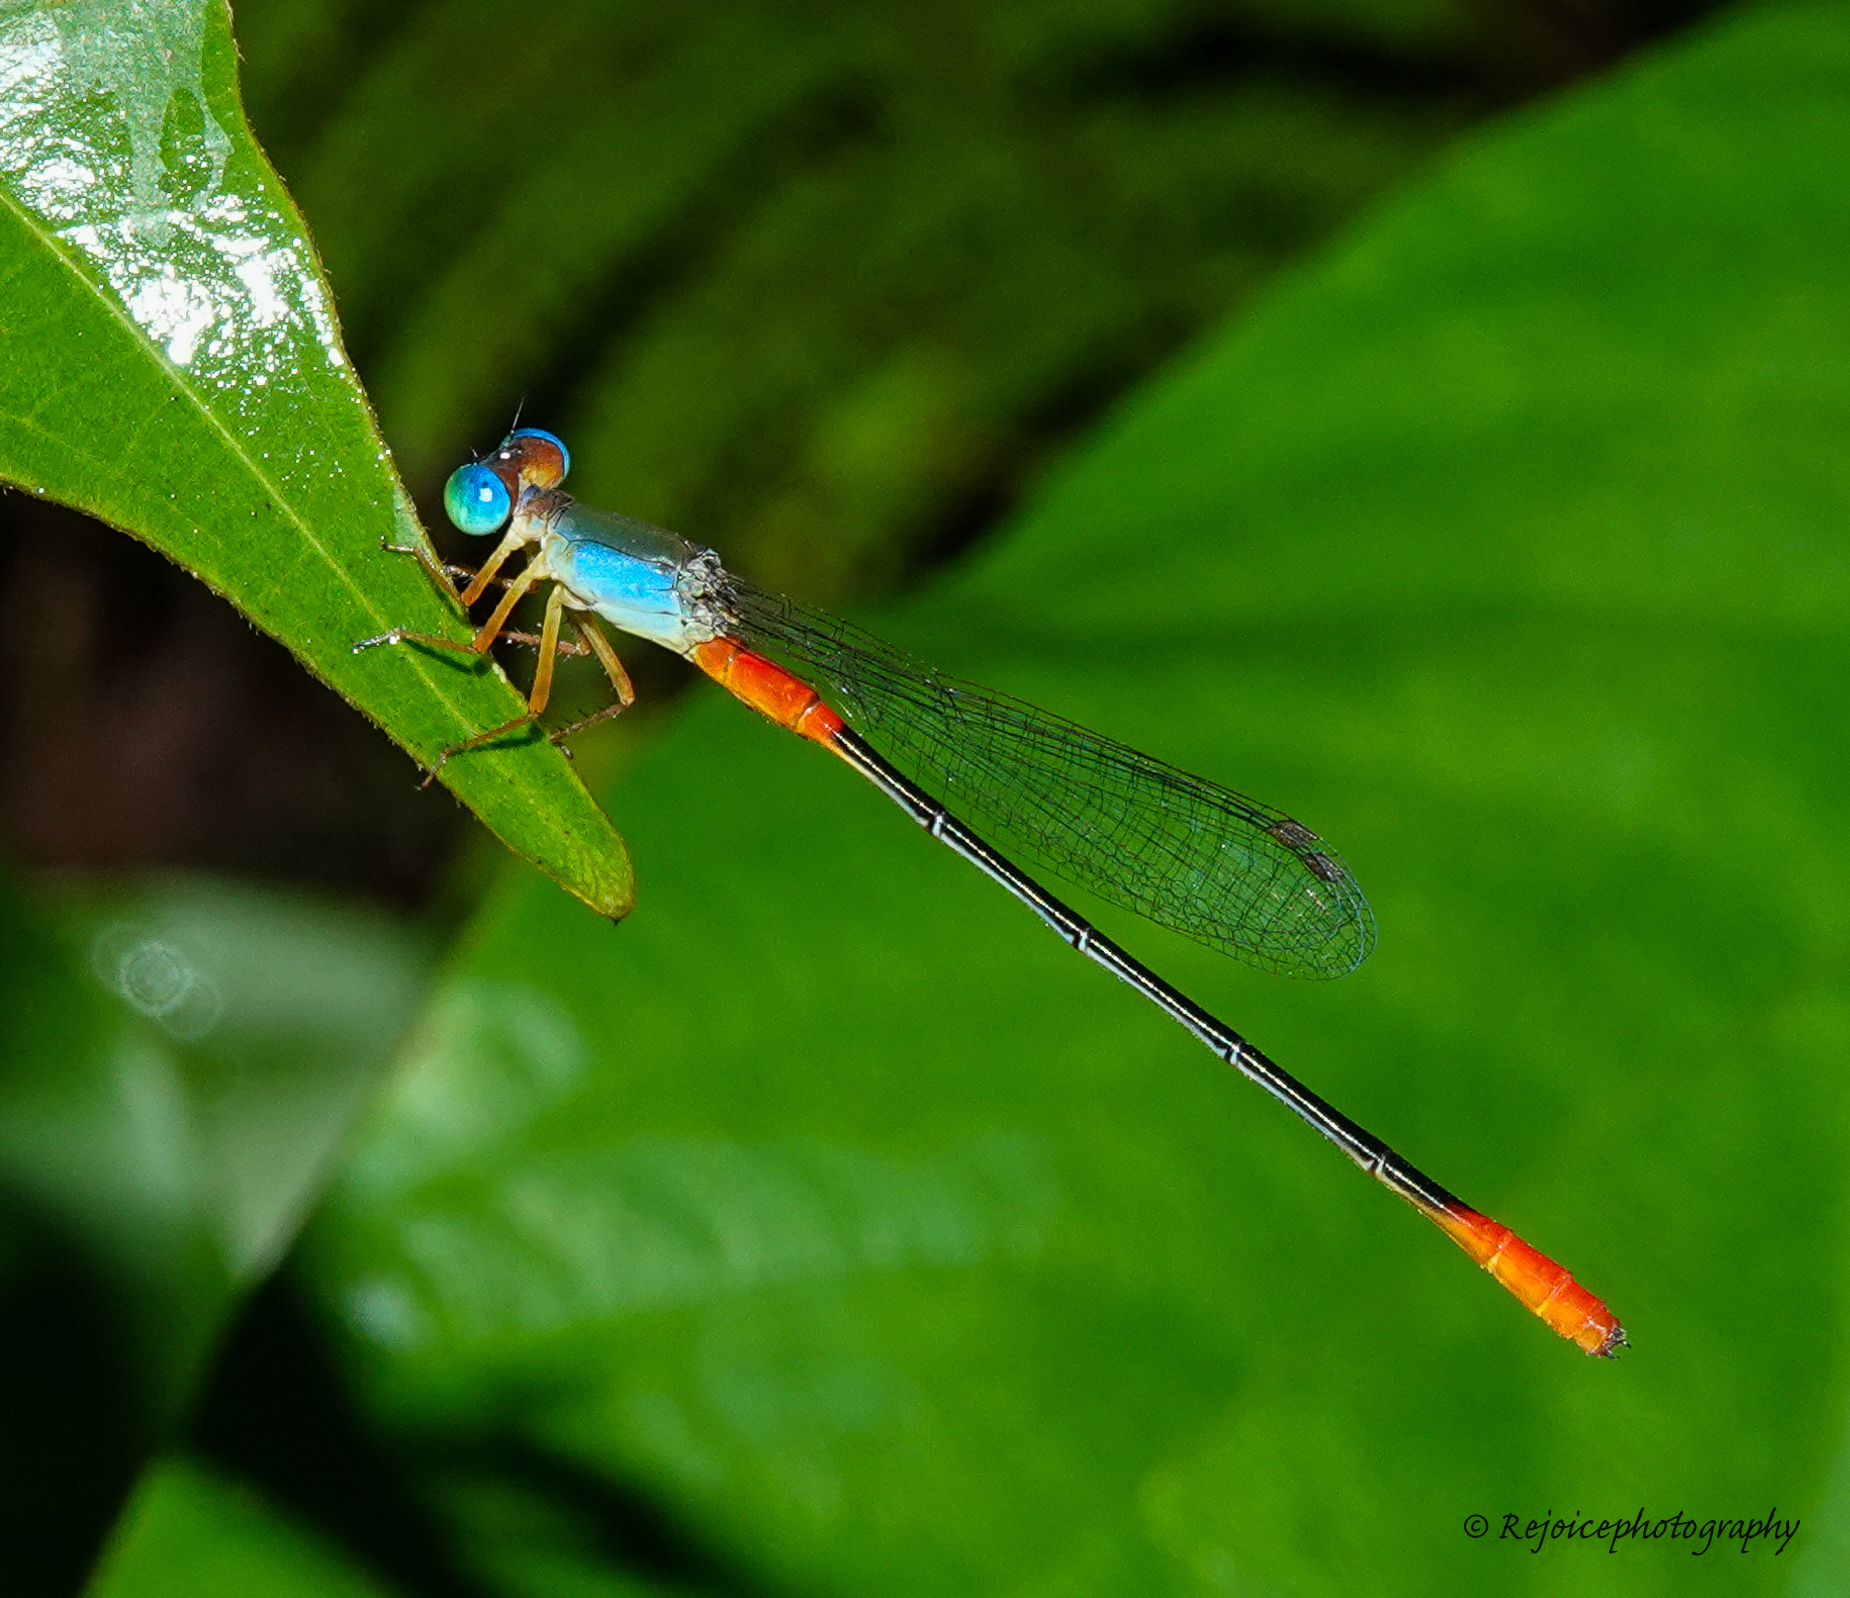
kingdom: Animalia
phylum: Arthropoda
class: Insecta
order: Odonata
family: Coenagrionidae
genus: Ceriagrion
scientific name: Ceriagrion cerinorubellum
